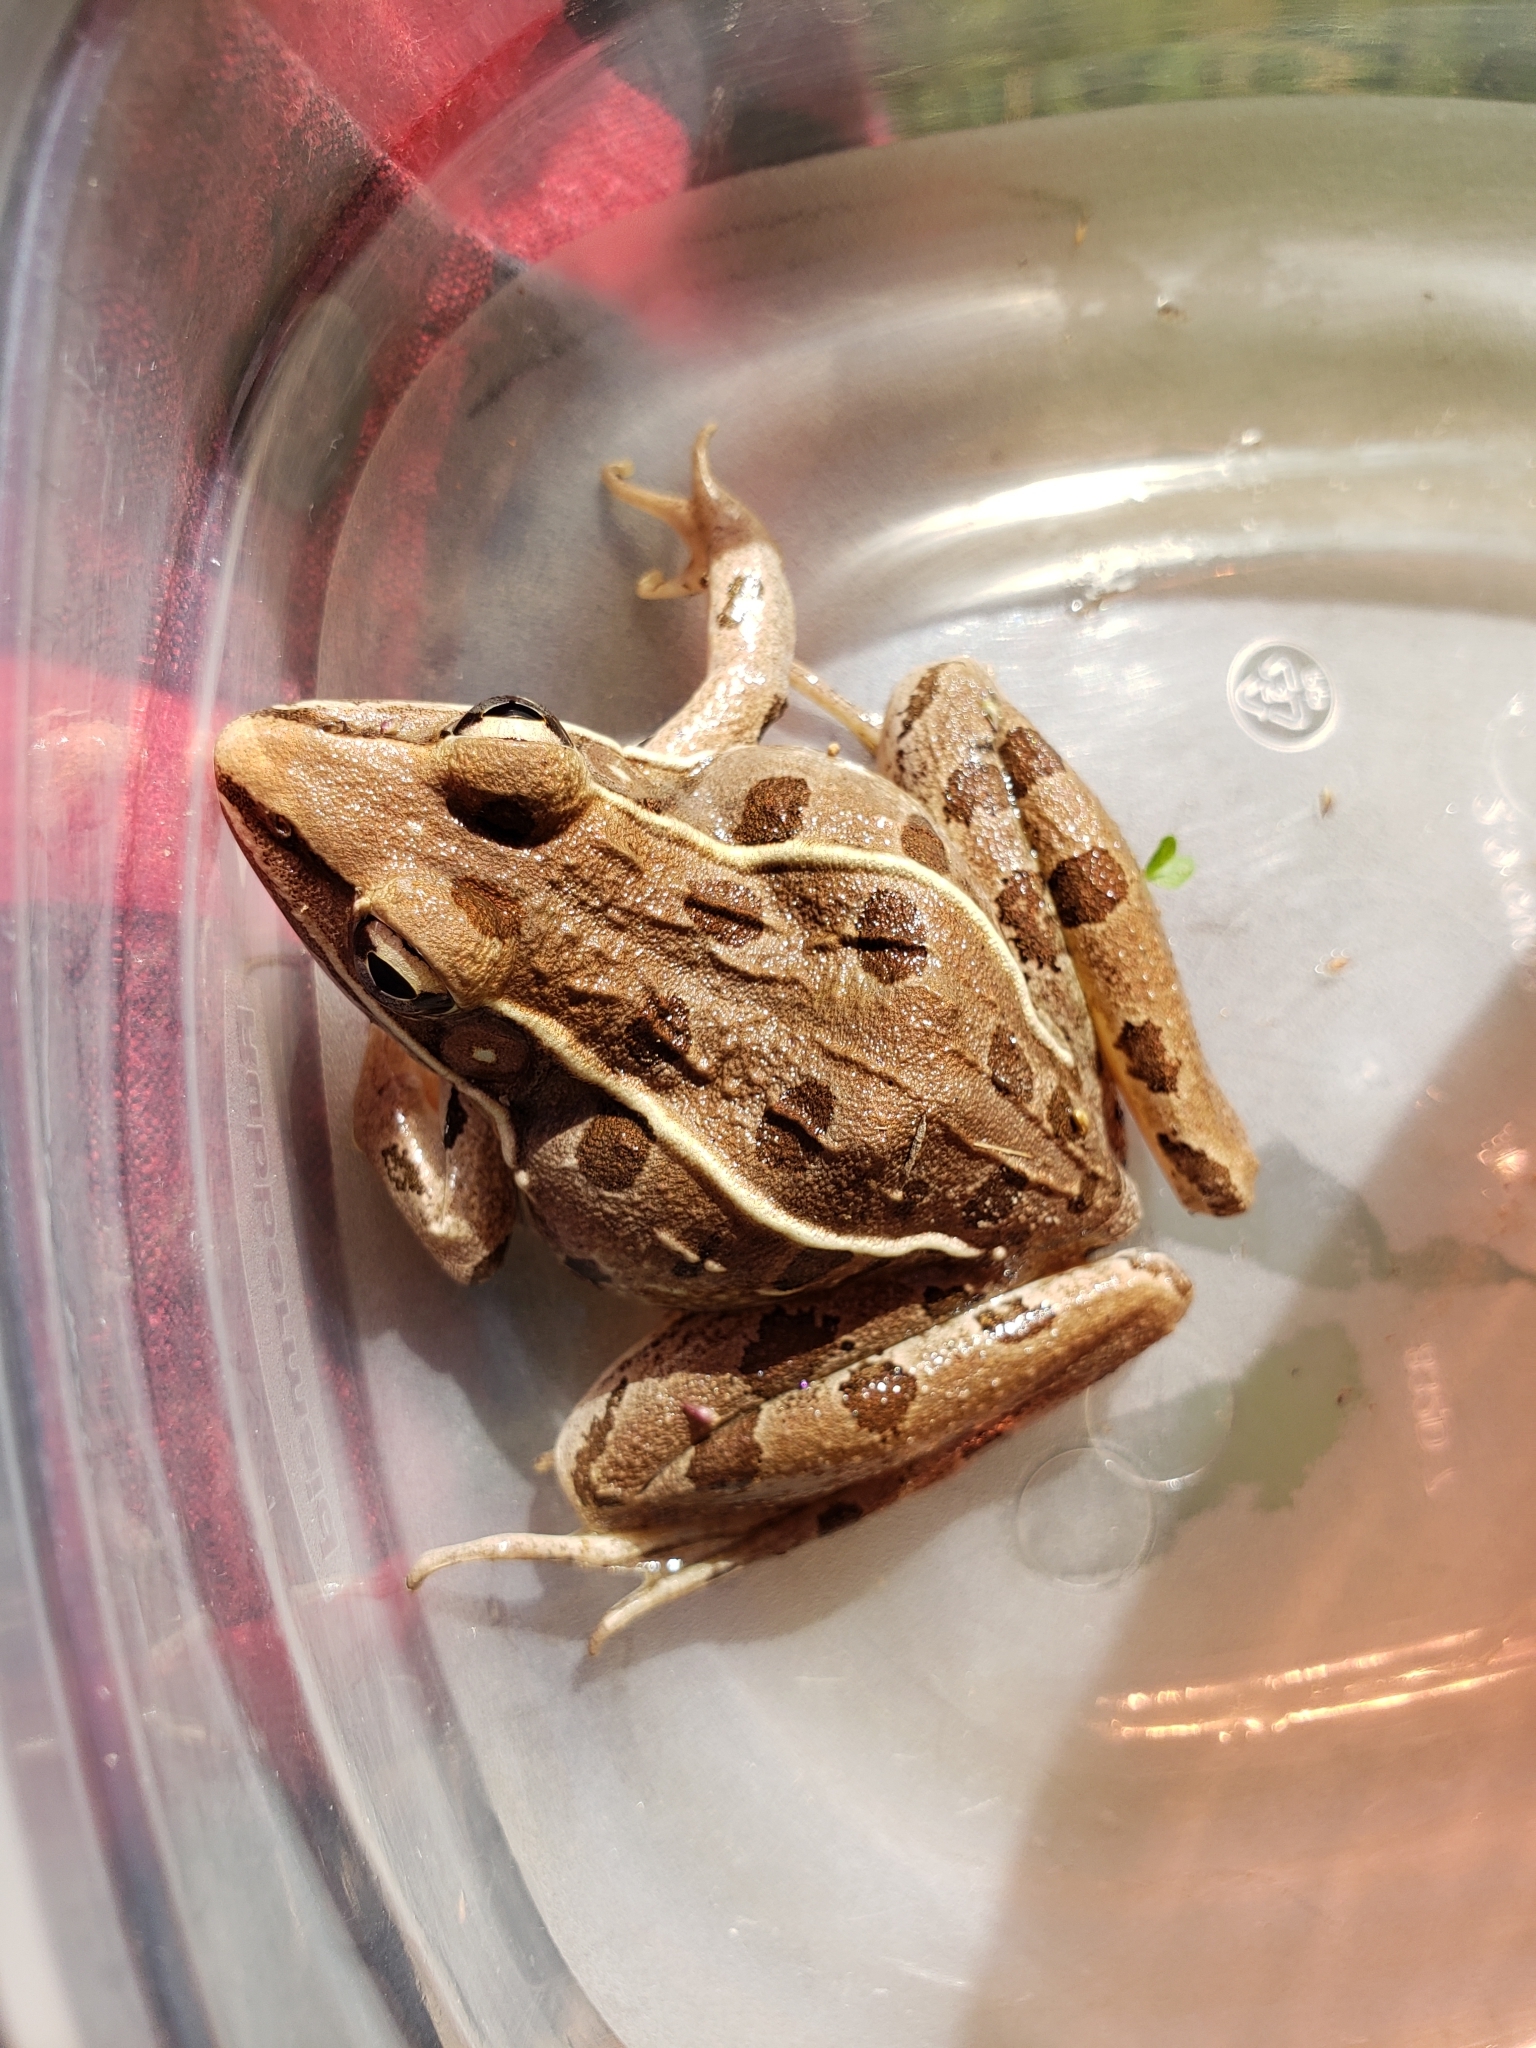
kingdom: Animalia
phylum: Chordata
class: Amphibia
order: Anura
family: Ranidae
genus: Lithobates
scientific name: Lithobates sphenocephalus
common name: Southern leopard frog
